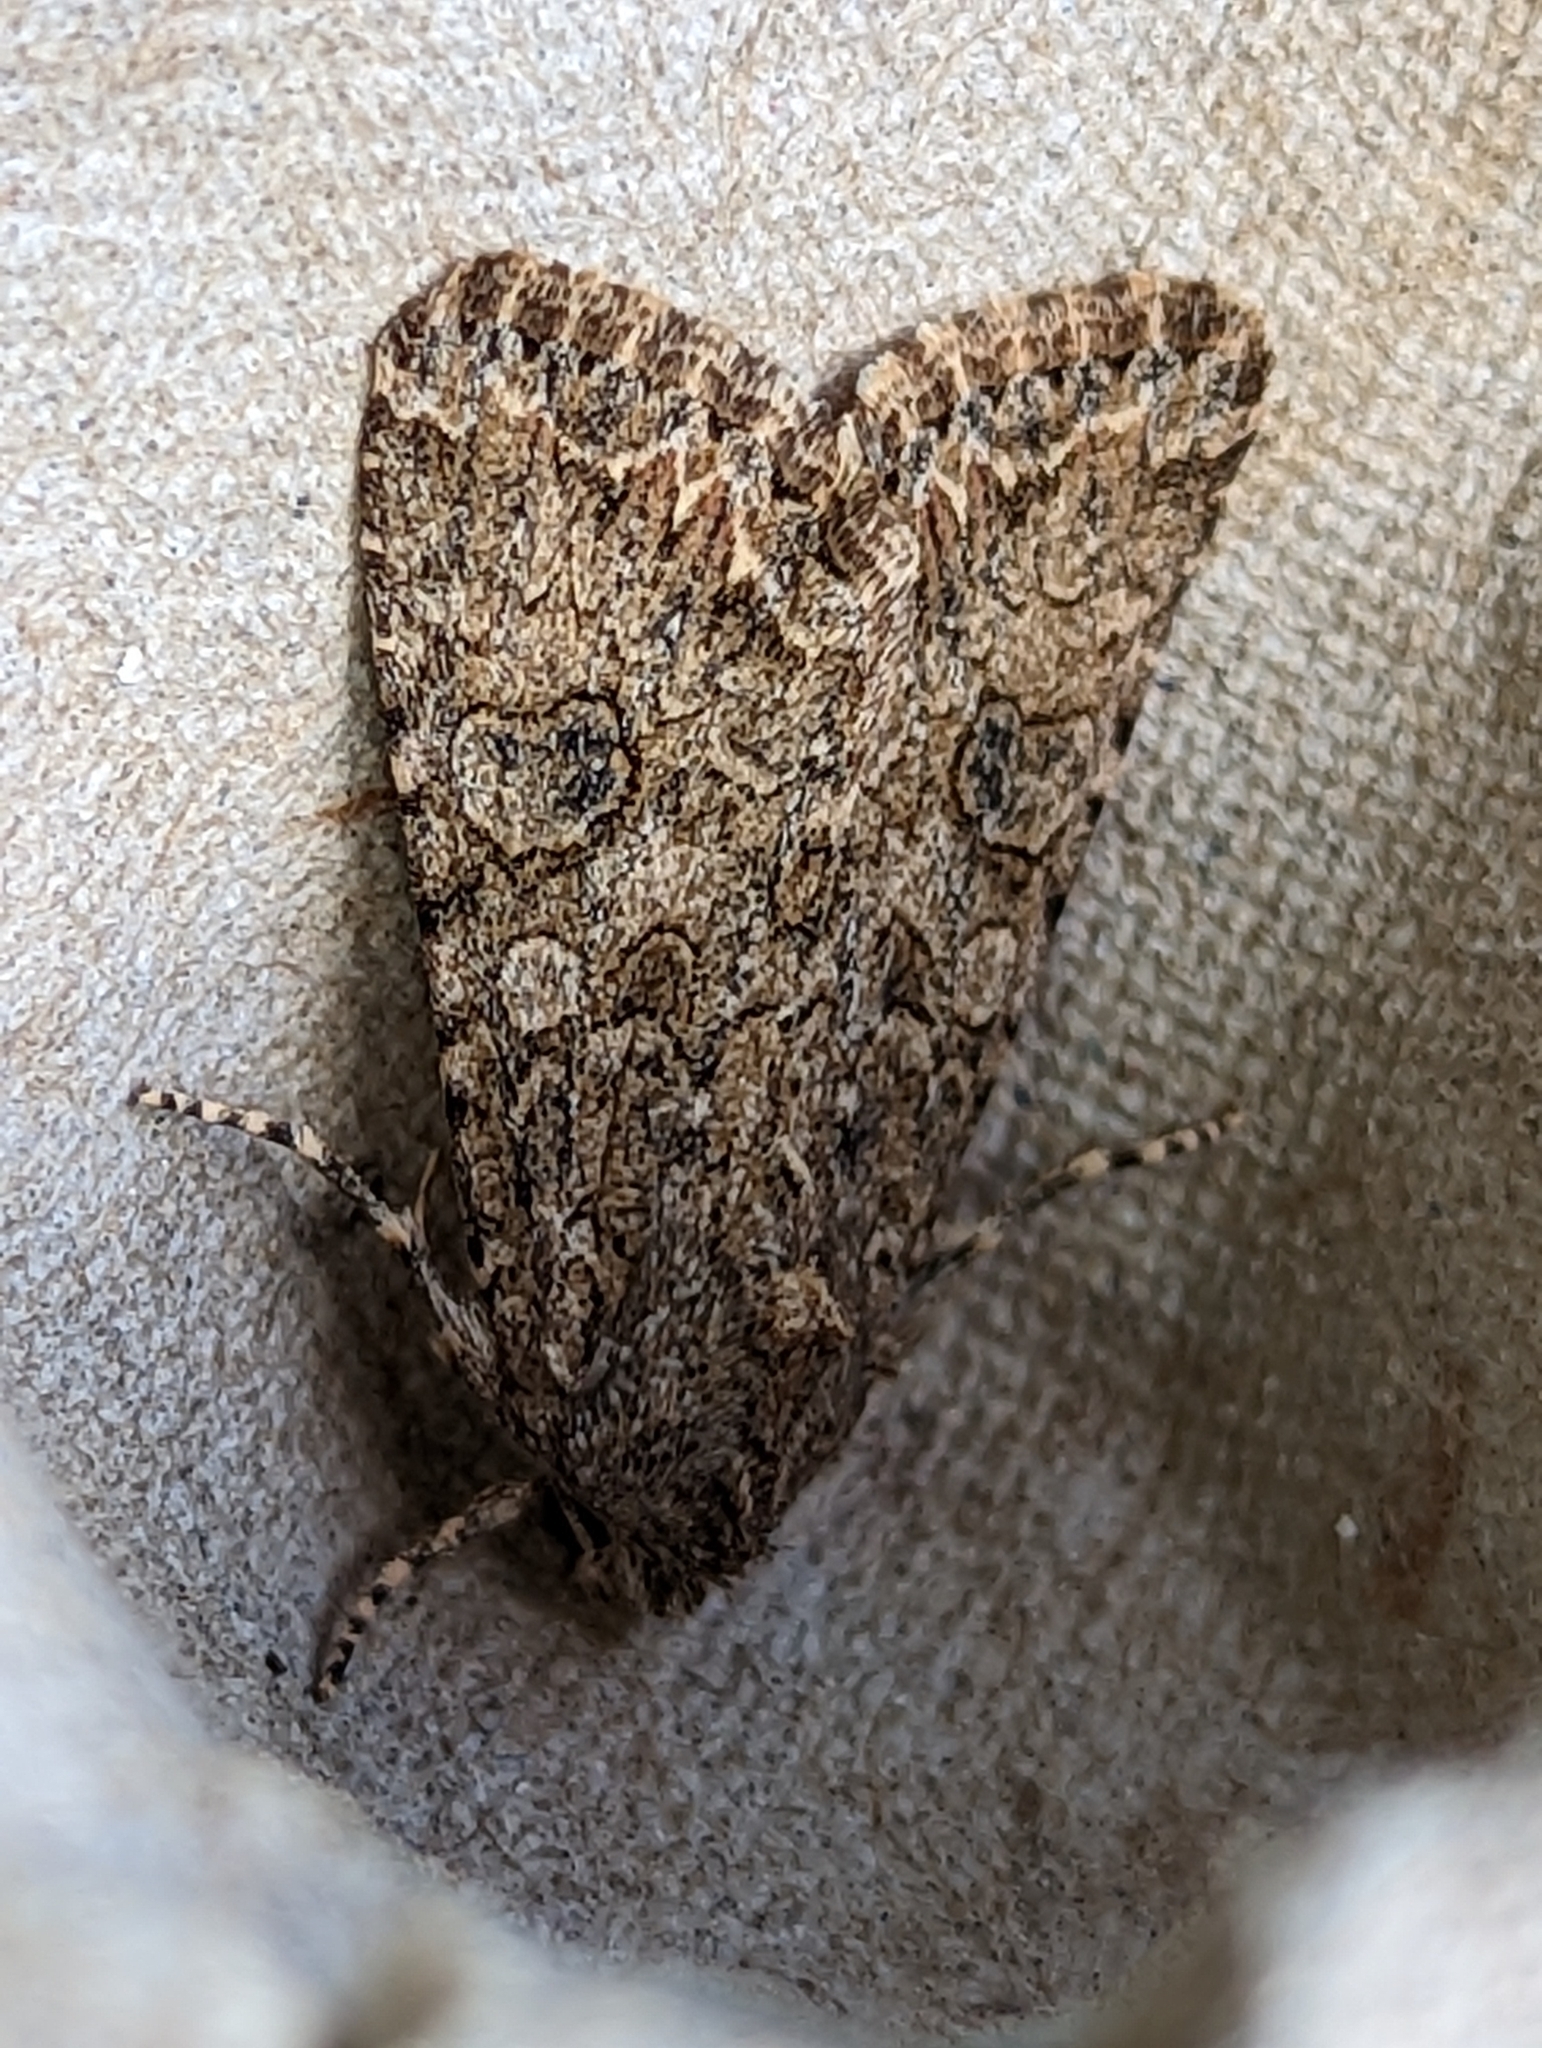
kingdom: Animalia
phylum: Arthropoda
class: Insecta
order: Lepidoptera
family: Noctuidae
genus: Anarta
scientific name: Anarta trifolii
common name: Clover cutworm moth
